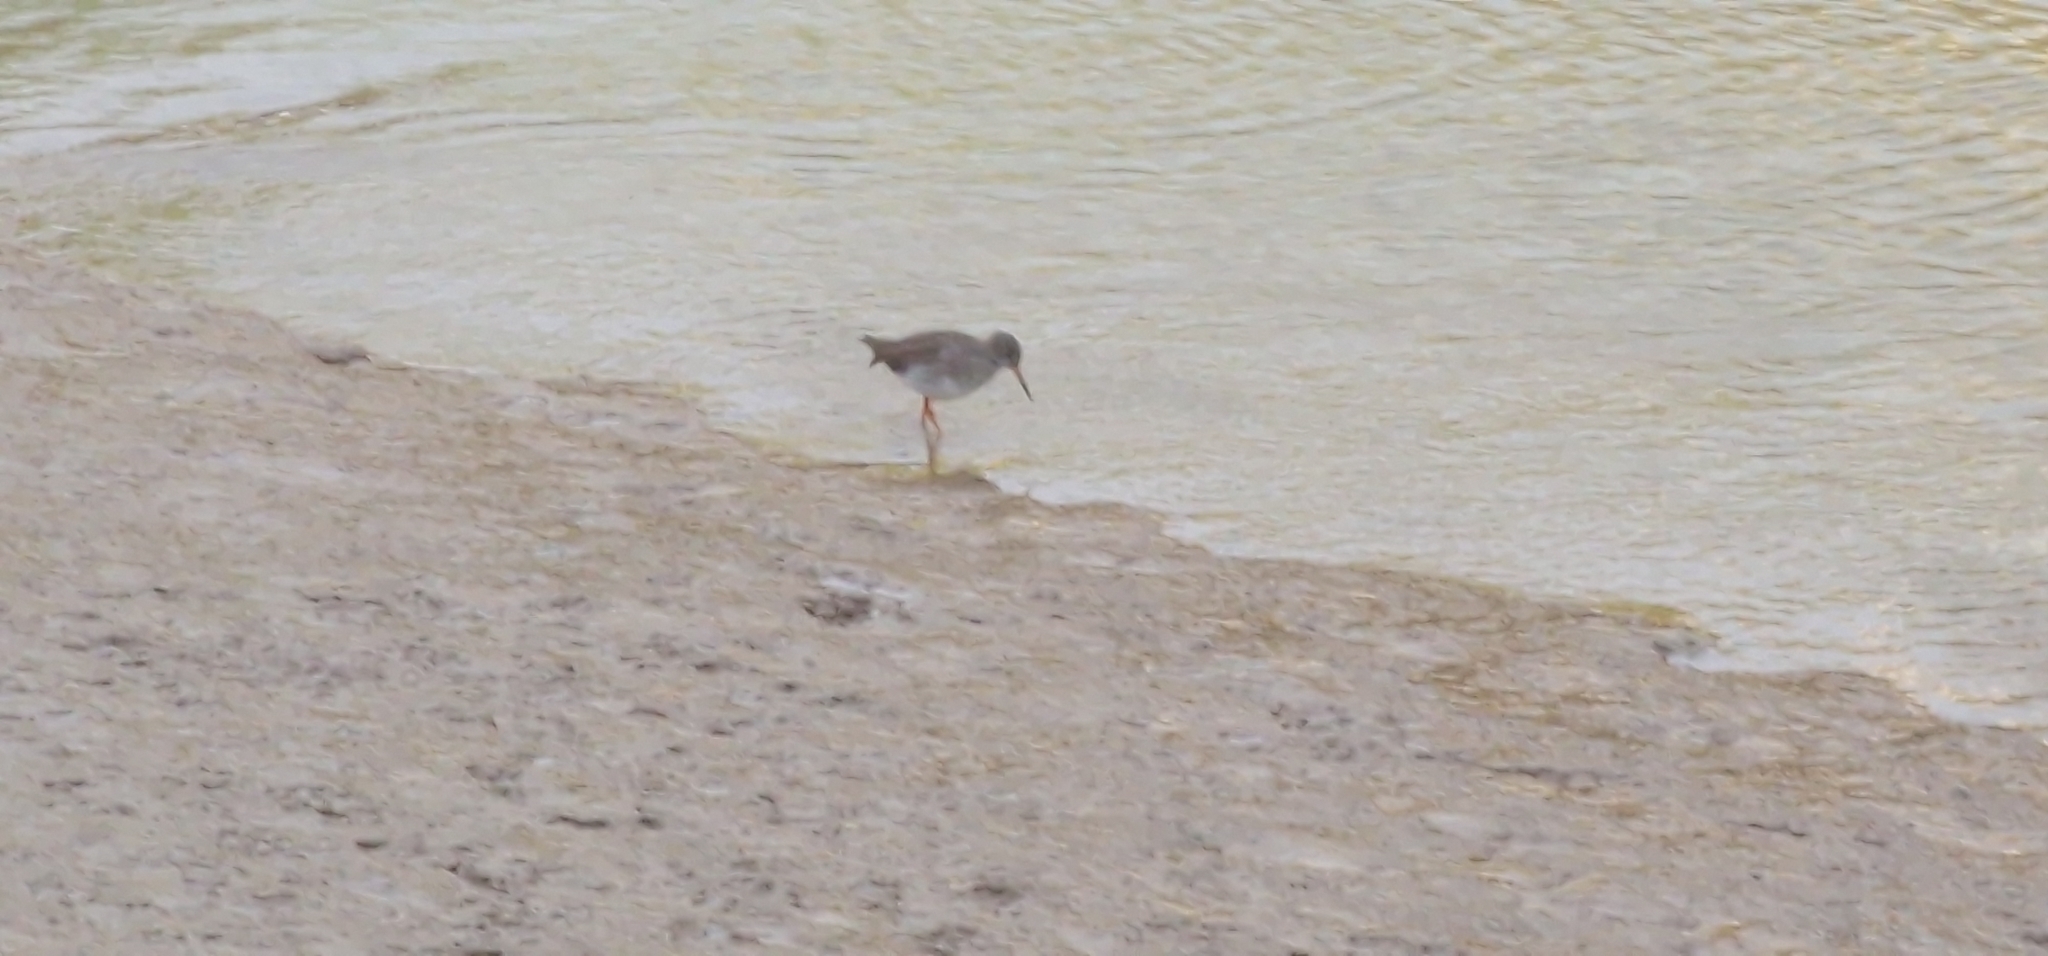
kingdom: Animalia
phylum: Chordata
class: Aves
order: Charadriiformes
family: Scolopacidae
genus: Tringa
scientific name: Tringa totanus
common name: Common redshank
